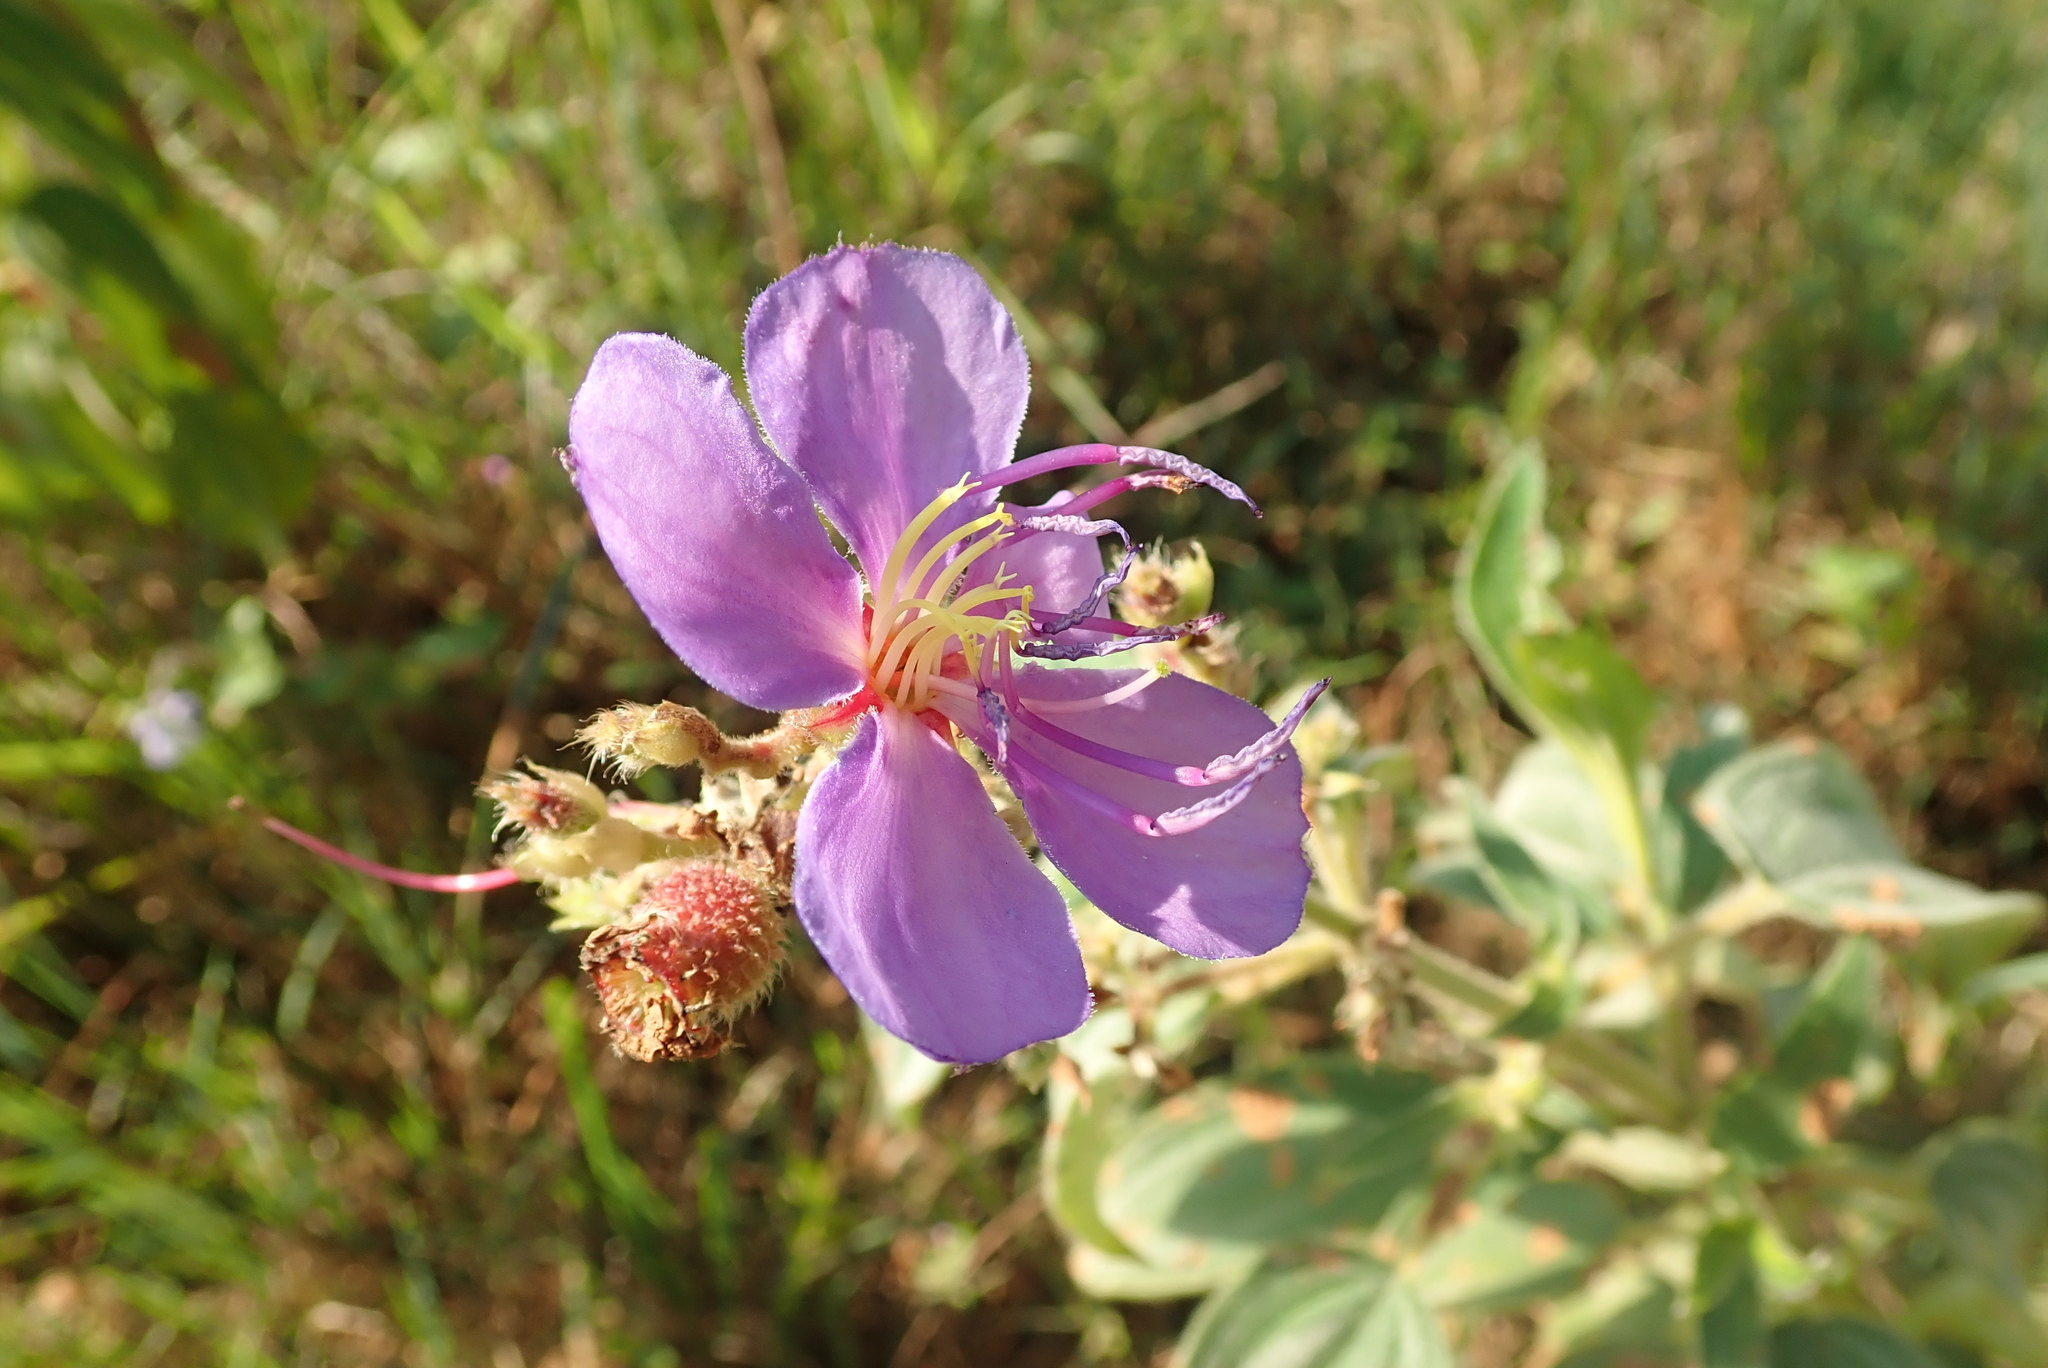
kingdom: Plantae
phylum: Tracheophyta
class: Magnoliopsida
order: Myrtales
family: Melastomataceae
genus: Argyrella
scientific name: Argyrella canescens
